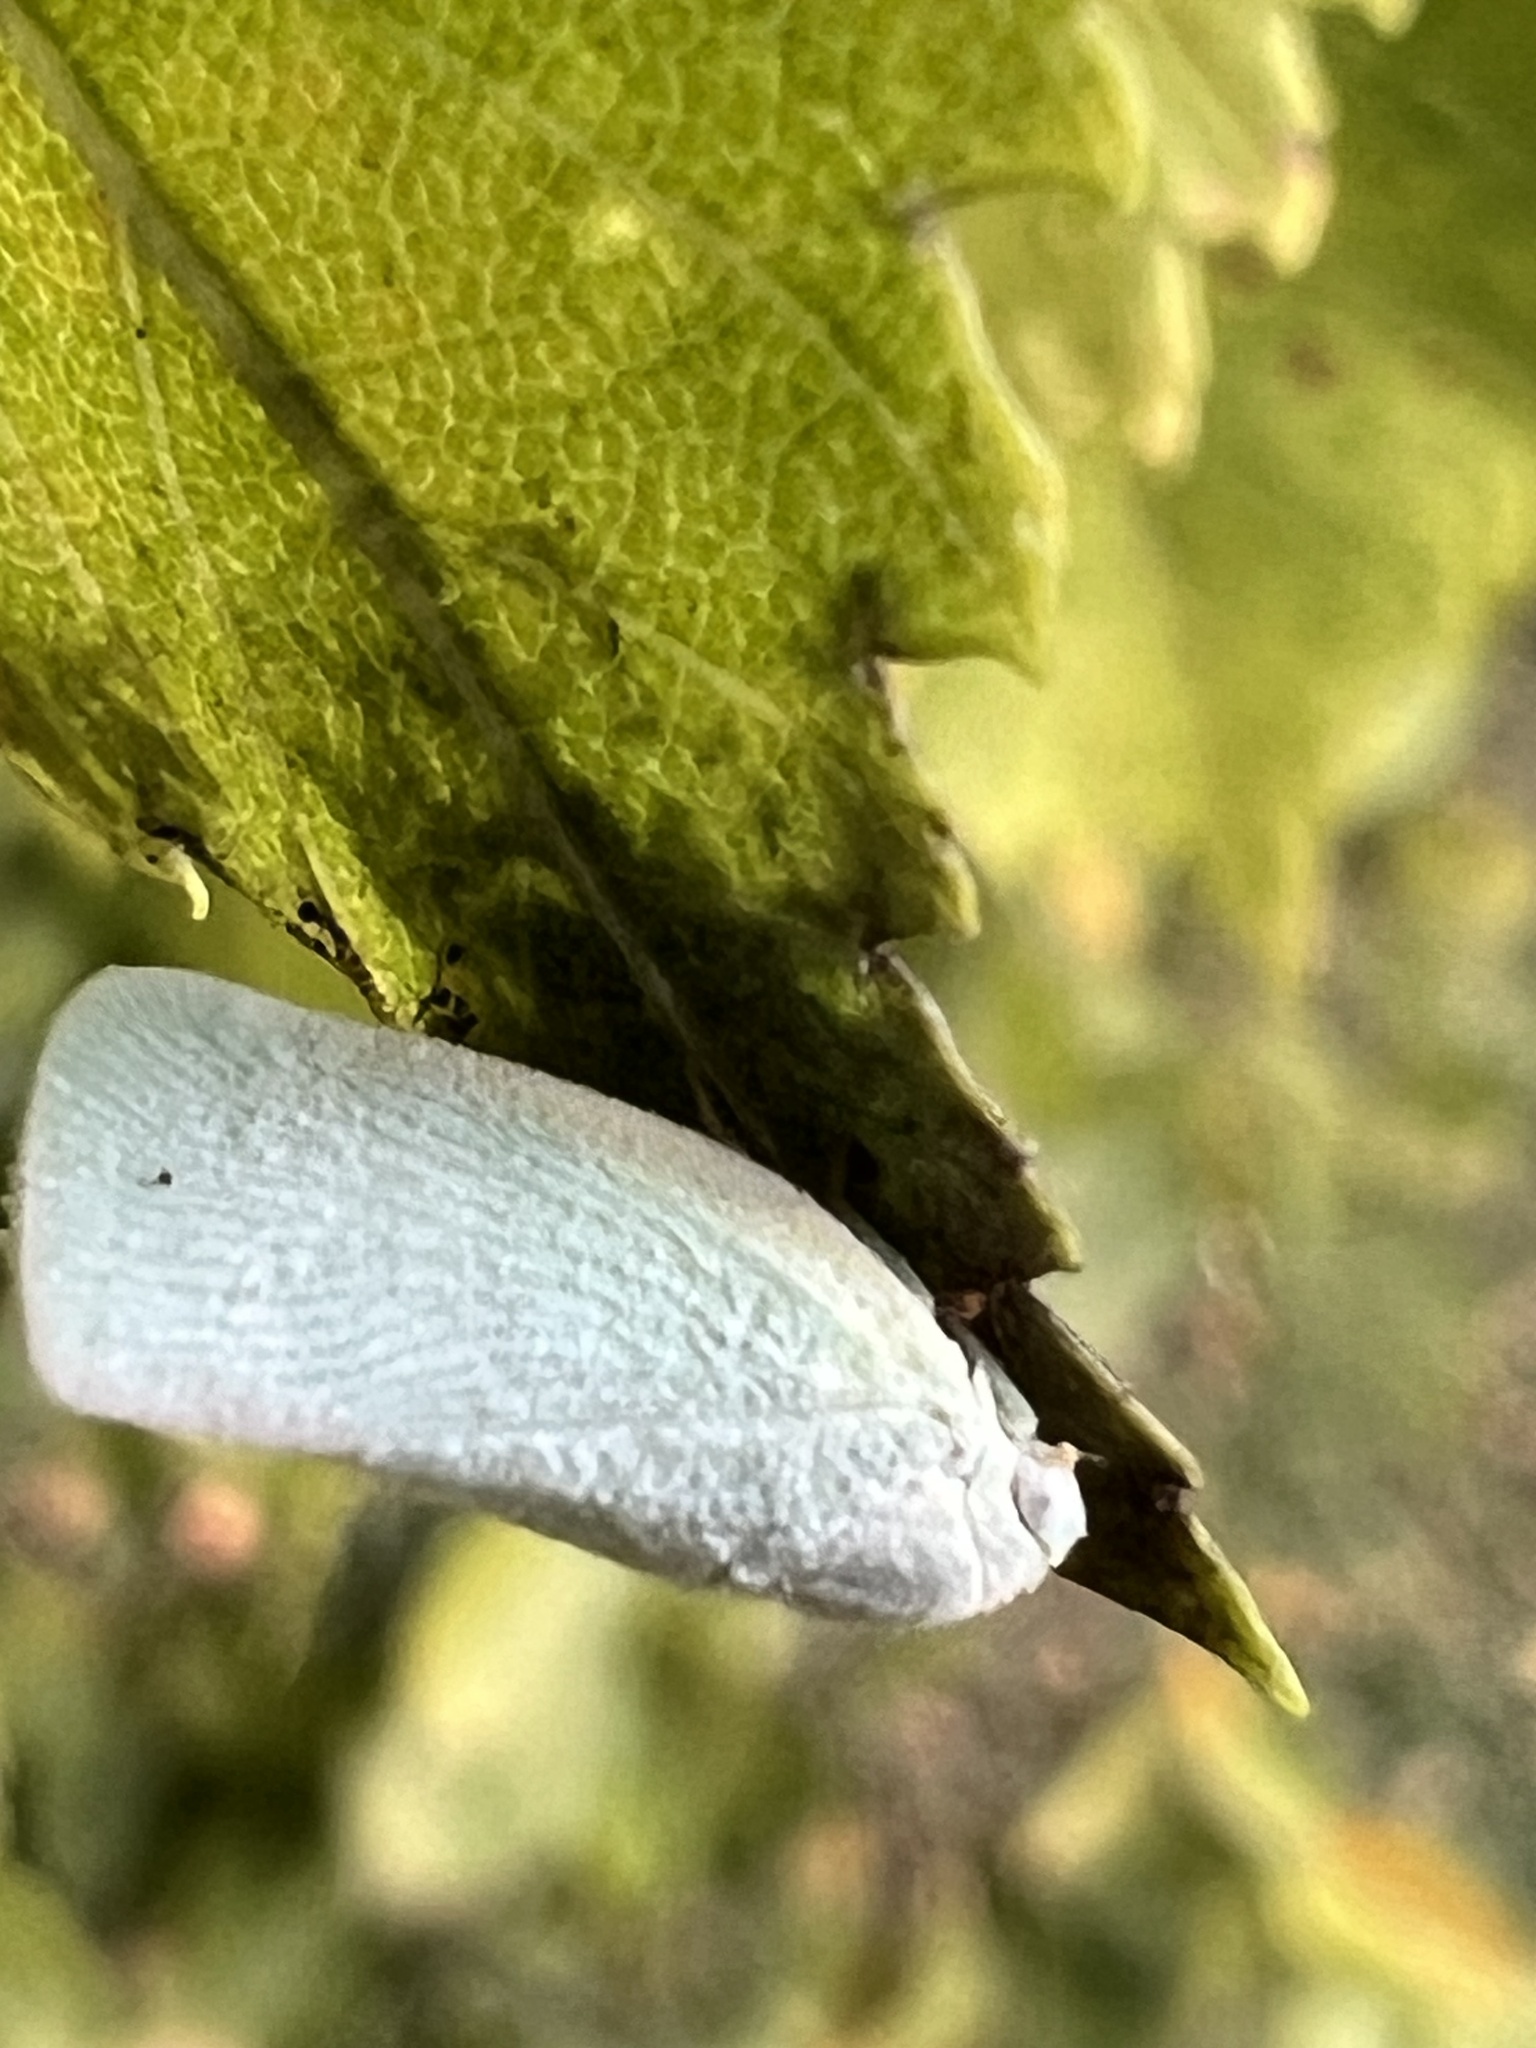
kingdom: Animalia
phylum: Arthropoda
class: Insecta
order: Hemiptera
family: Flatidae
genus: Flatormenis
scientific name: Flatormenis proxima
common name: Northern flatid planthopper
